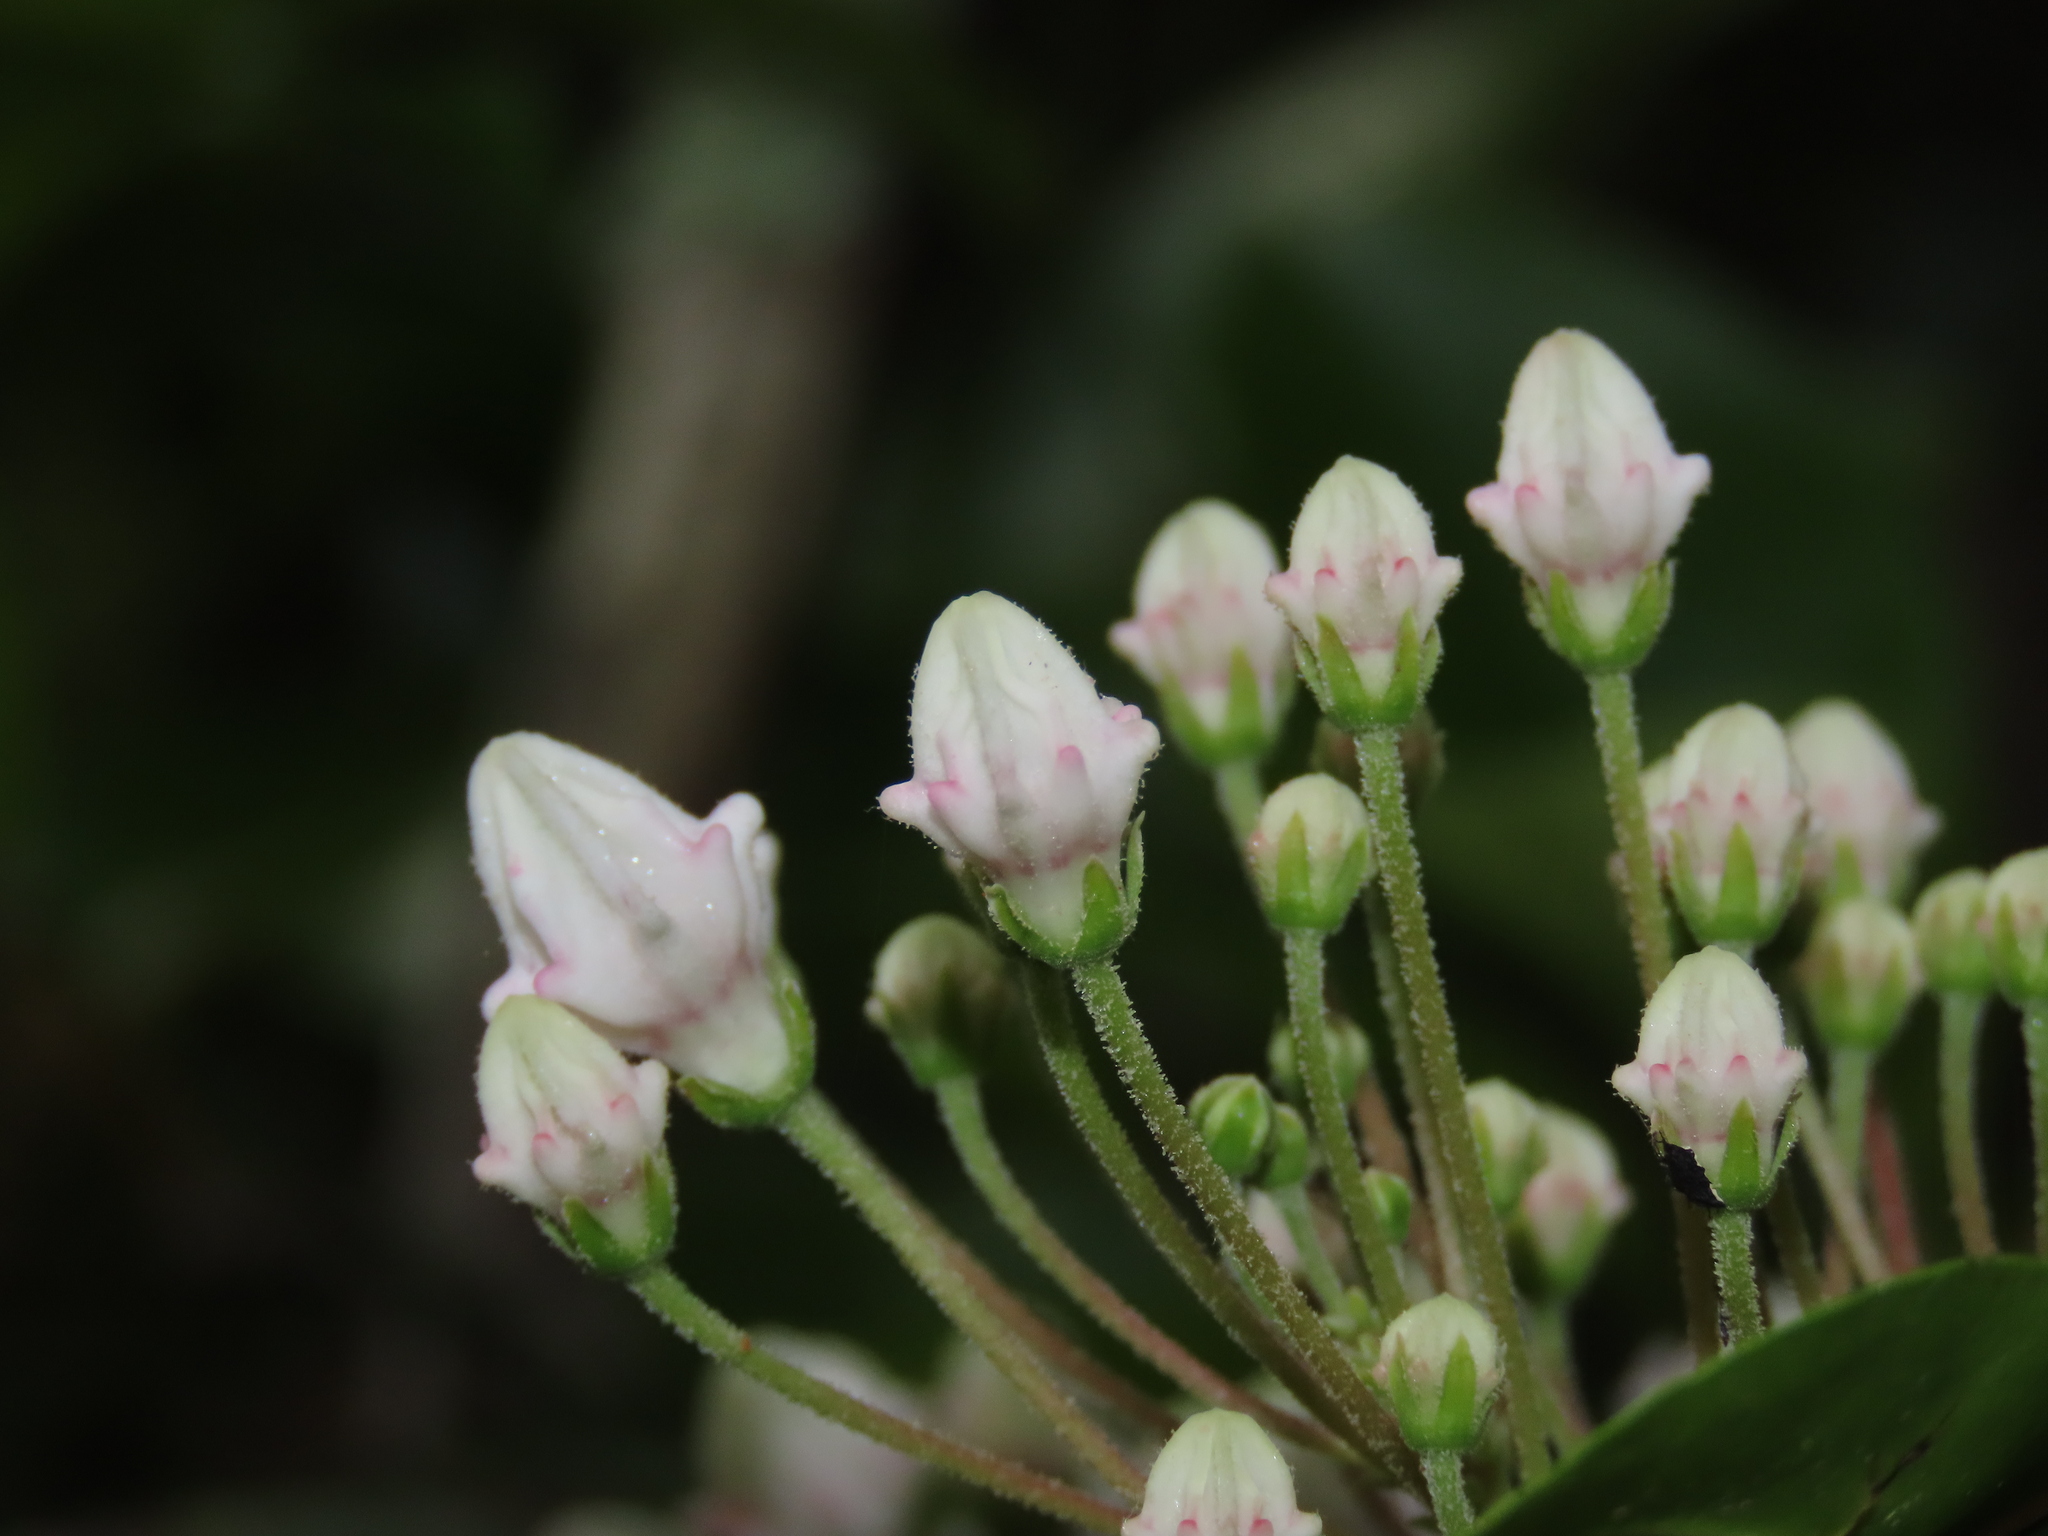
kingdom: Plantae
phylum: Tracheophyta
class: Magnoliopsida
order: Ericales
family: Ericaceae
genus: Kalmia
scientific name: Kalmia latifolia
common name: Mountain-laurel
